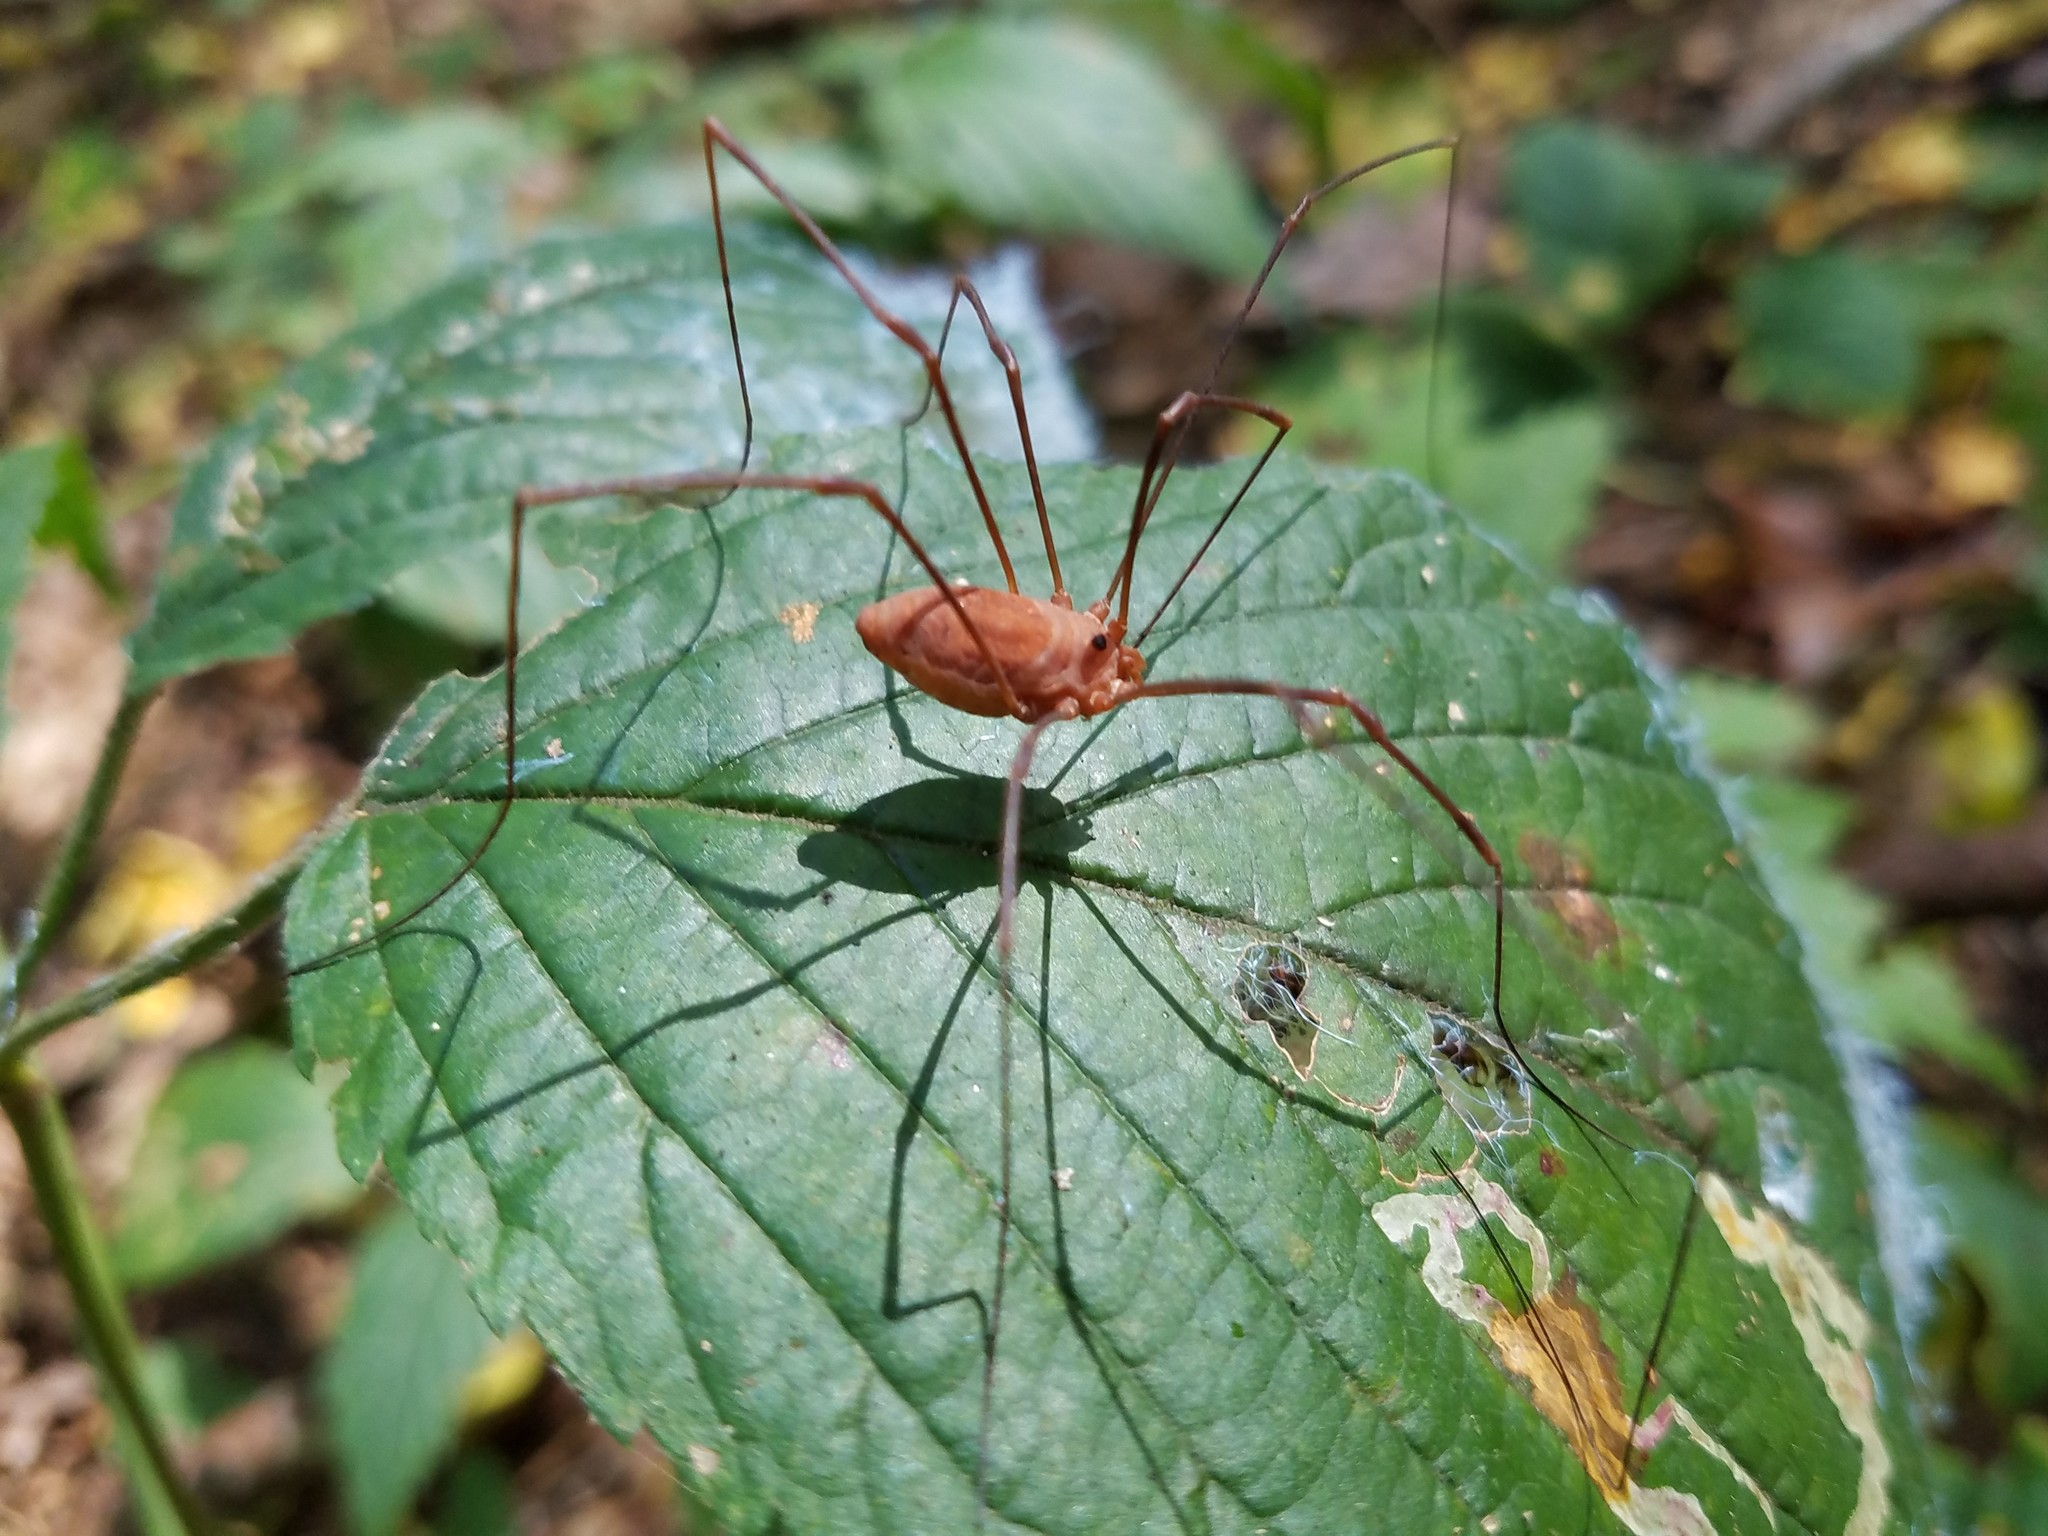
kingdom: Animalia
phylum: Arthropoda
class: Arachnida
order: Opiliones
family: Sclerosomatidae
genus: Leiobunum
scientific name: Leiobunum ventricosum
